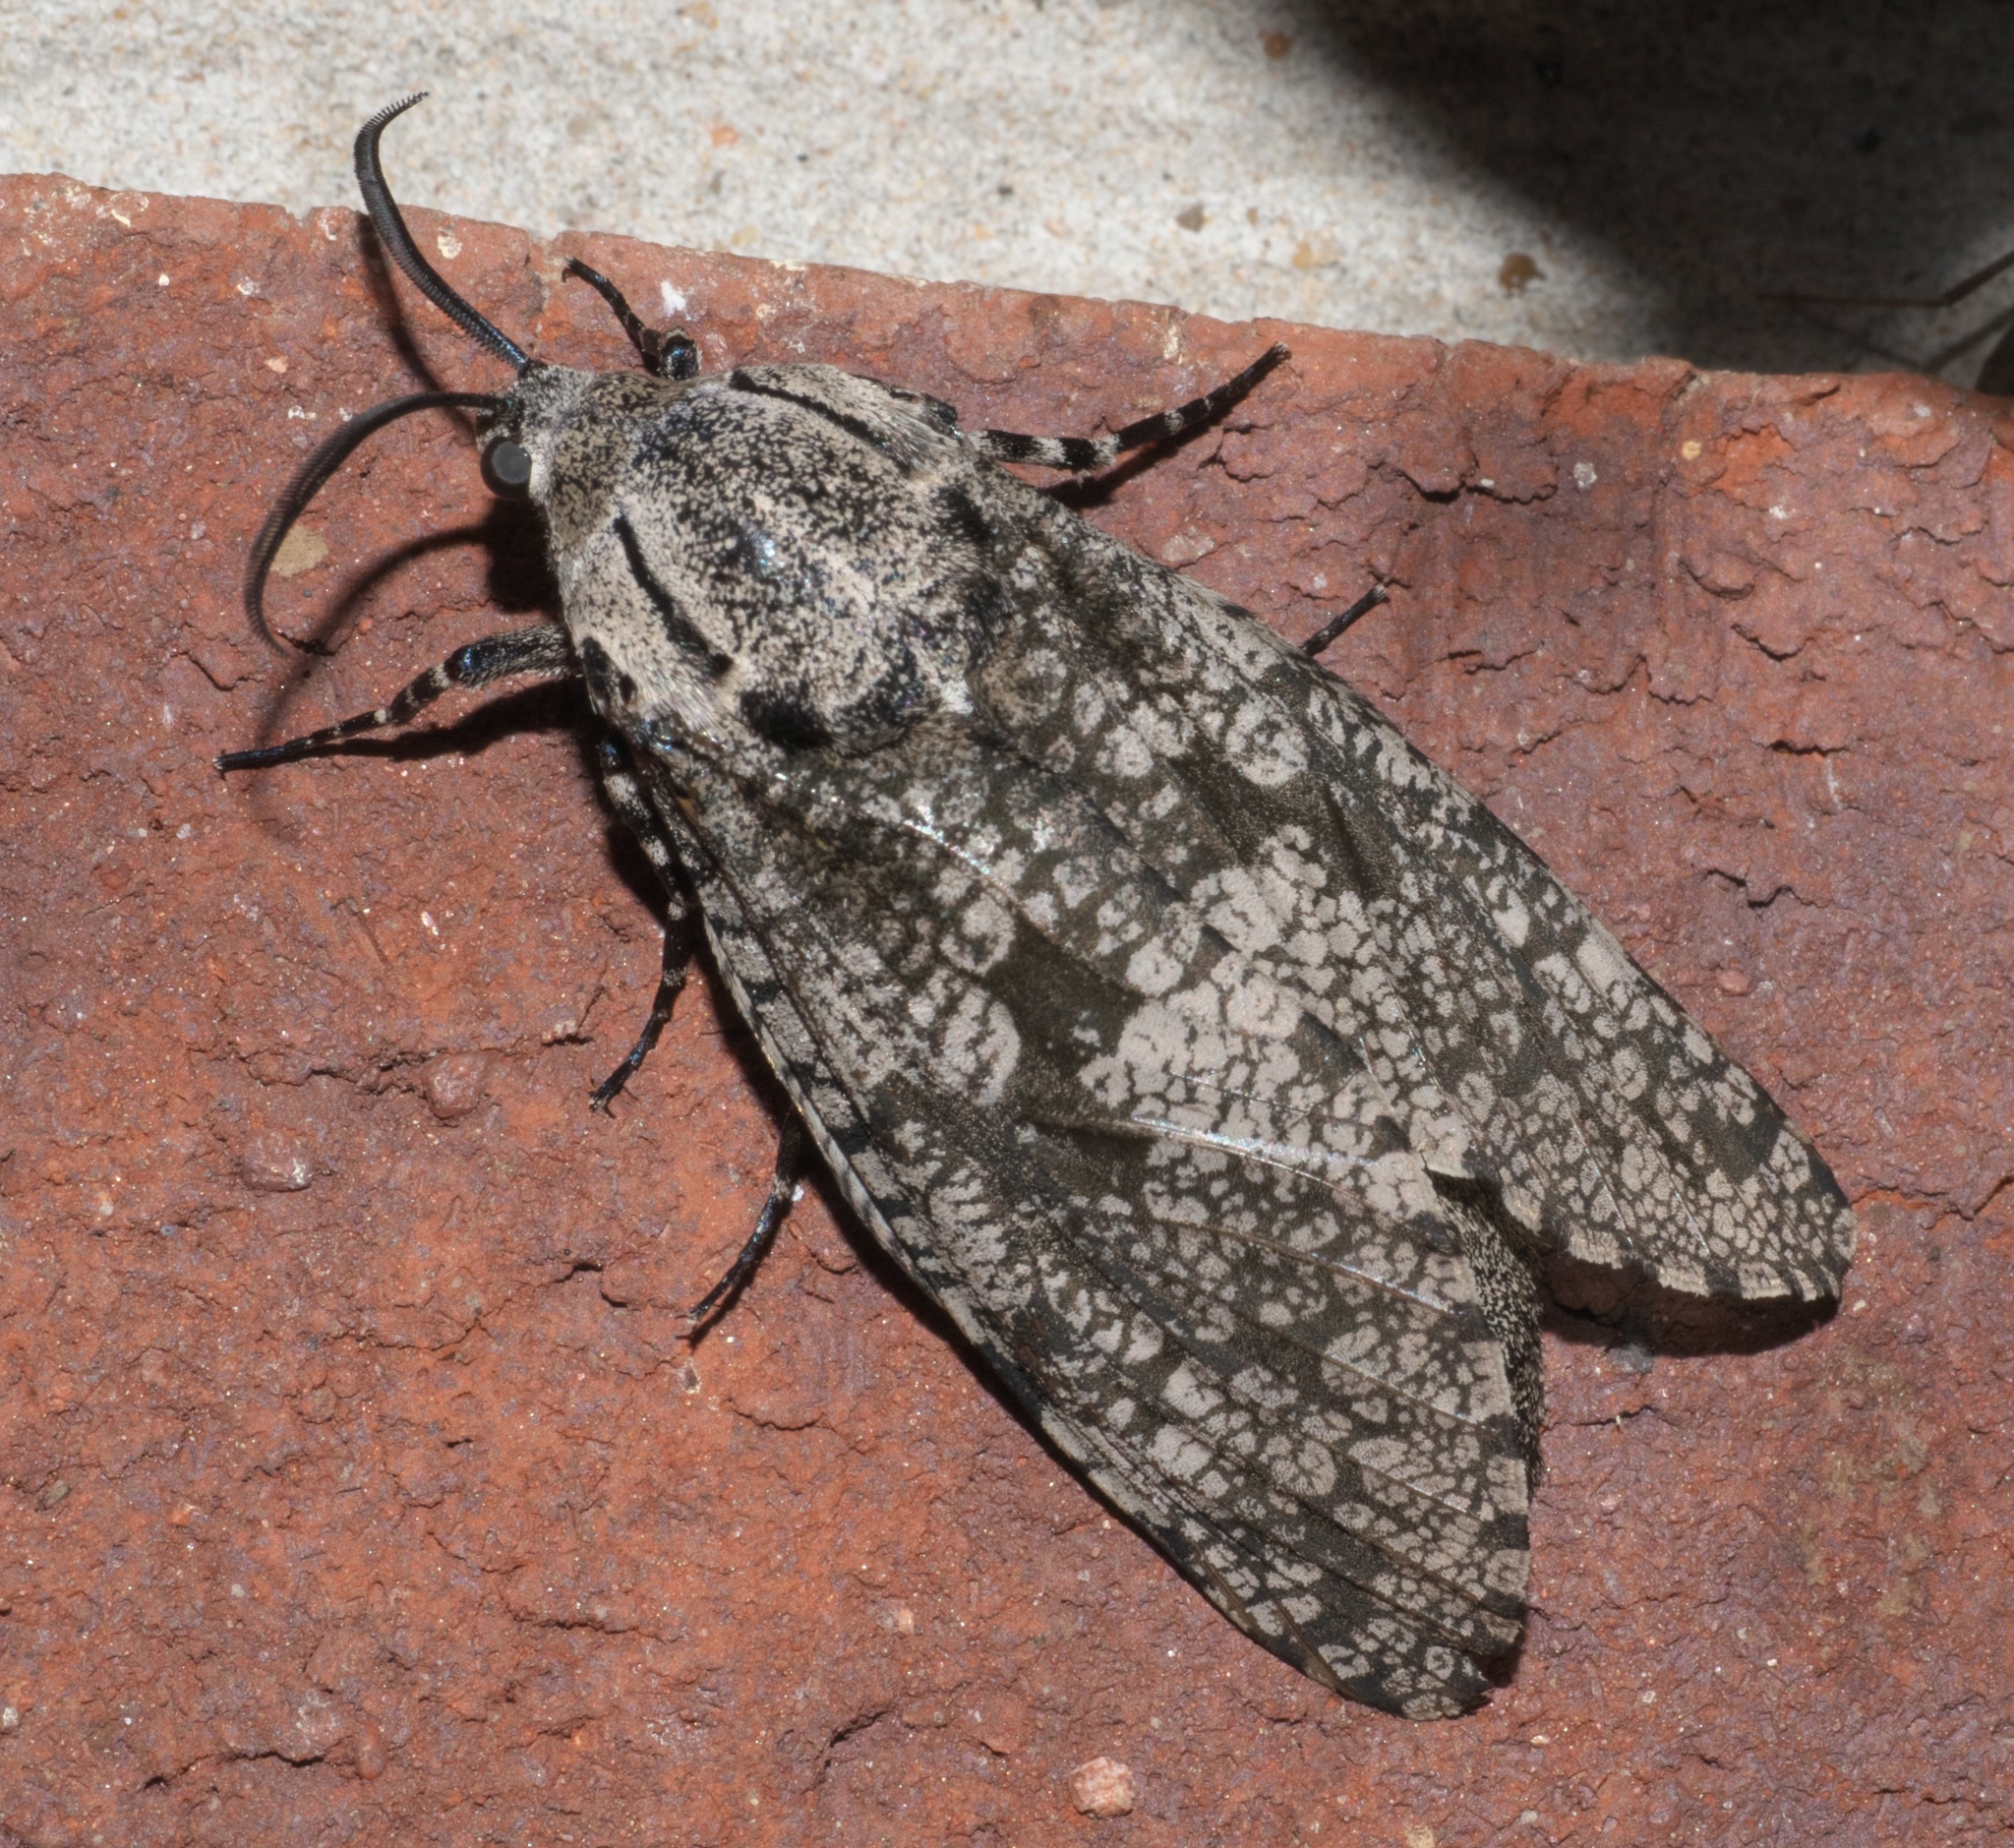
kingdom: Animalia
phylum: Arthropoda
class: Insecta
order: Lepidoptera
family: Cossidae
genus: Prionoxystus
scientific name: Prionoxystus robiniae
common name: Carpenterworm
